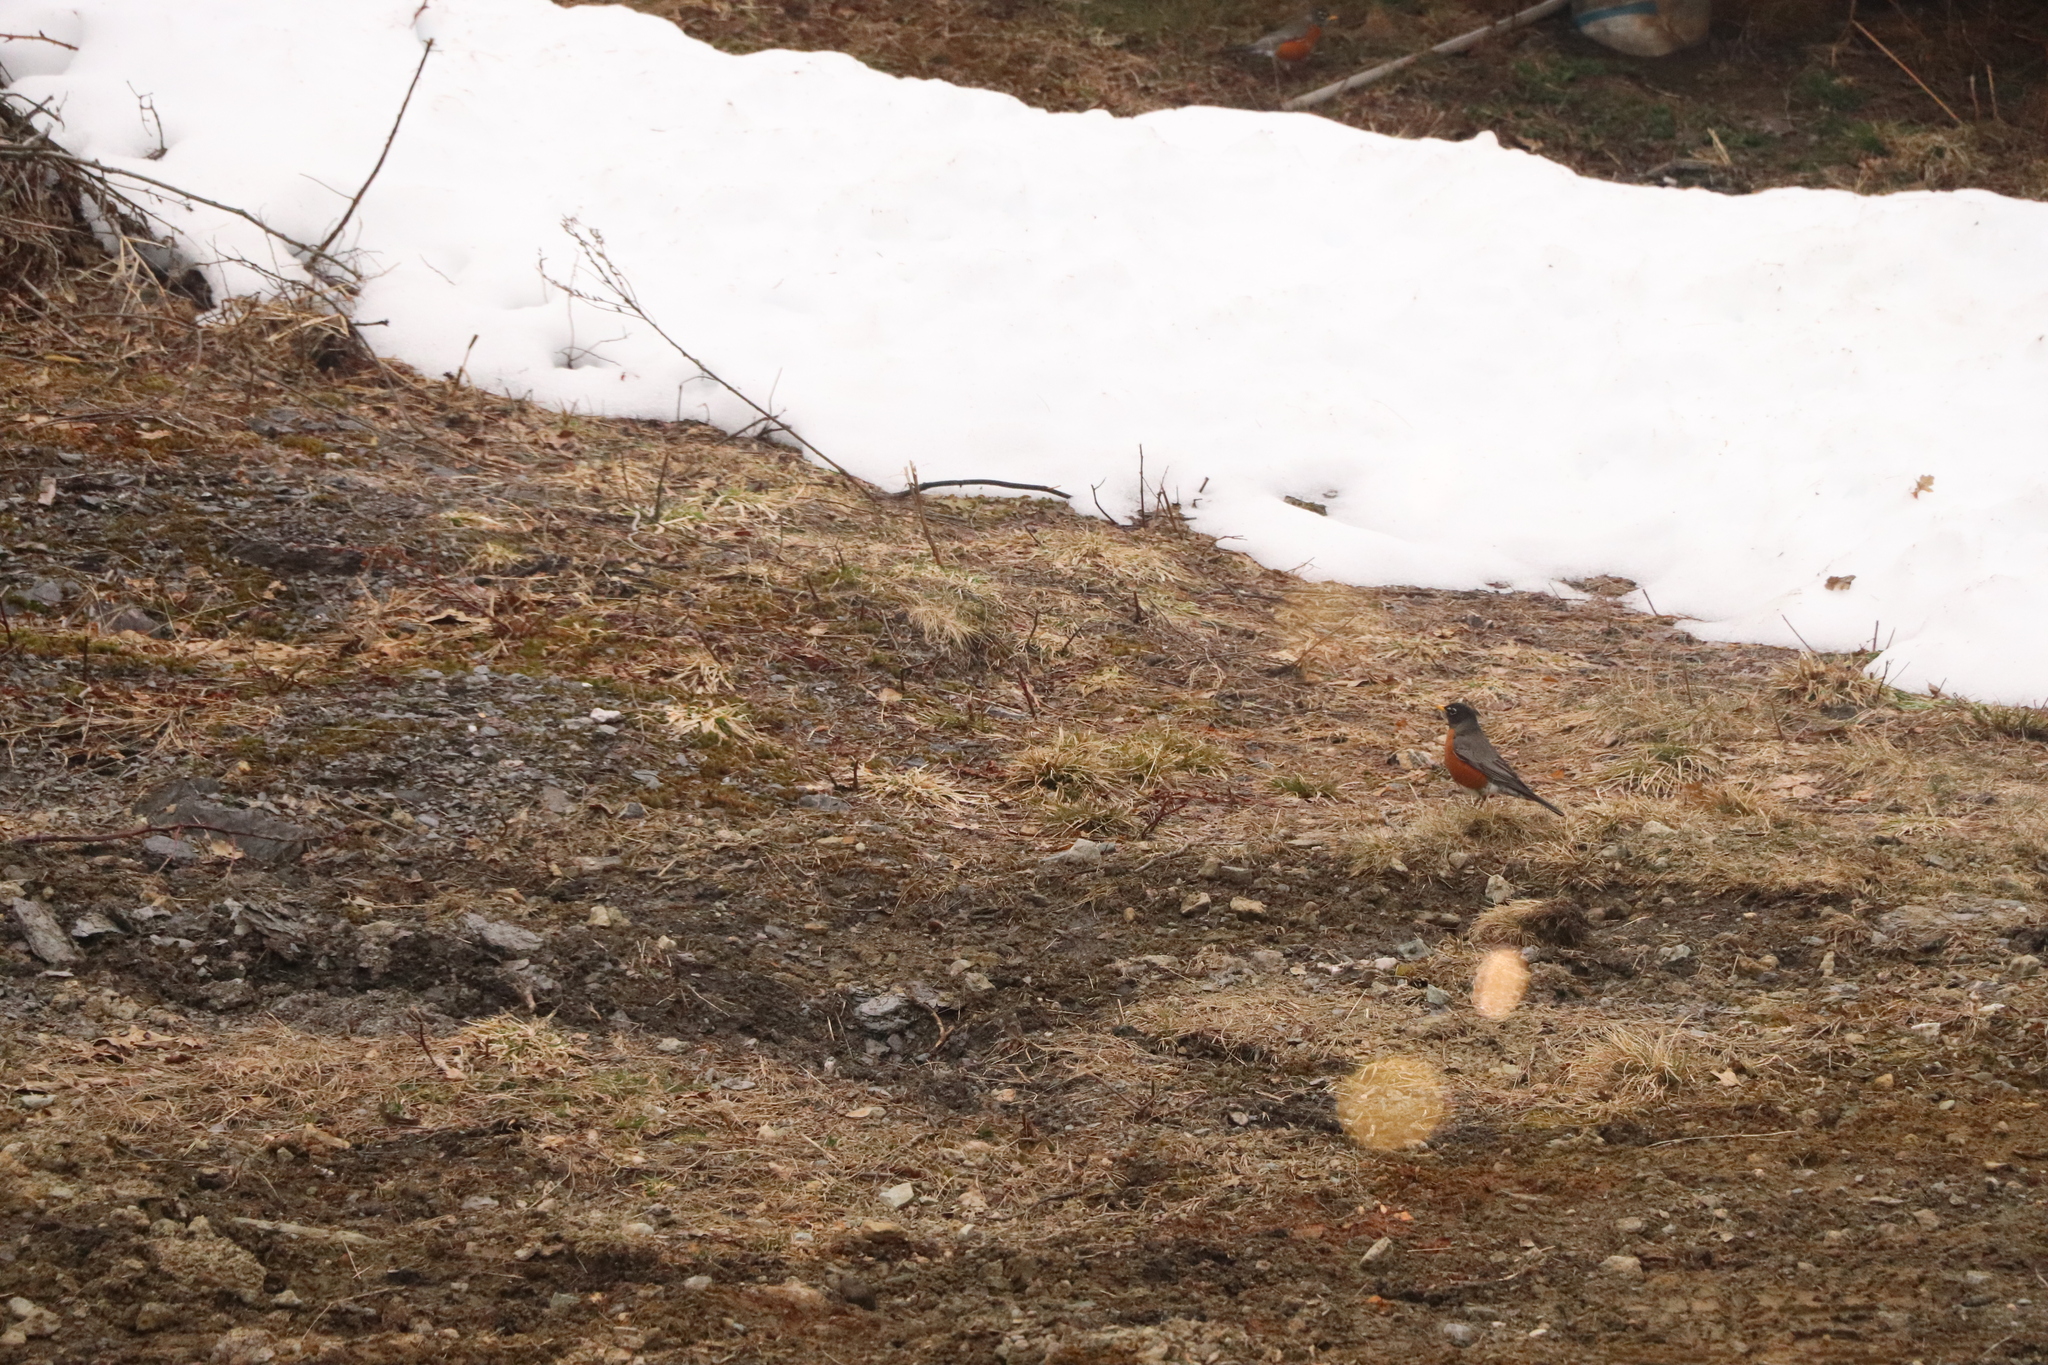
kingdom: Animalia
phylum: Chordata
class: Aves
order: Passeriformes
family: Turdidae
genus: Turdus
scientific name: Turdus migratorius
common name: American robin
